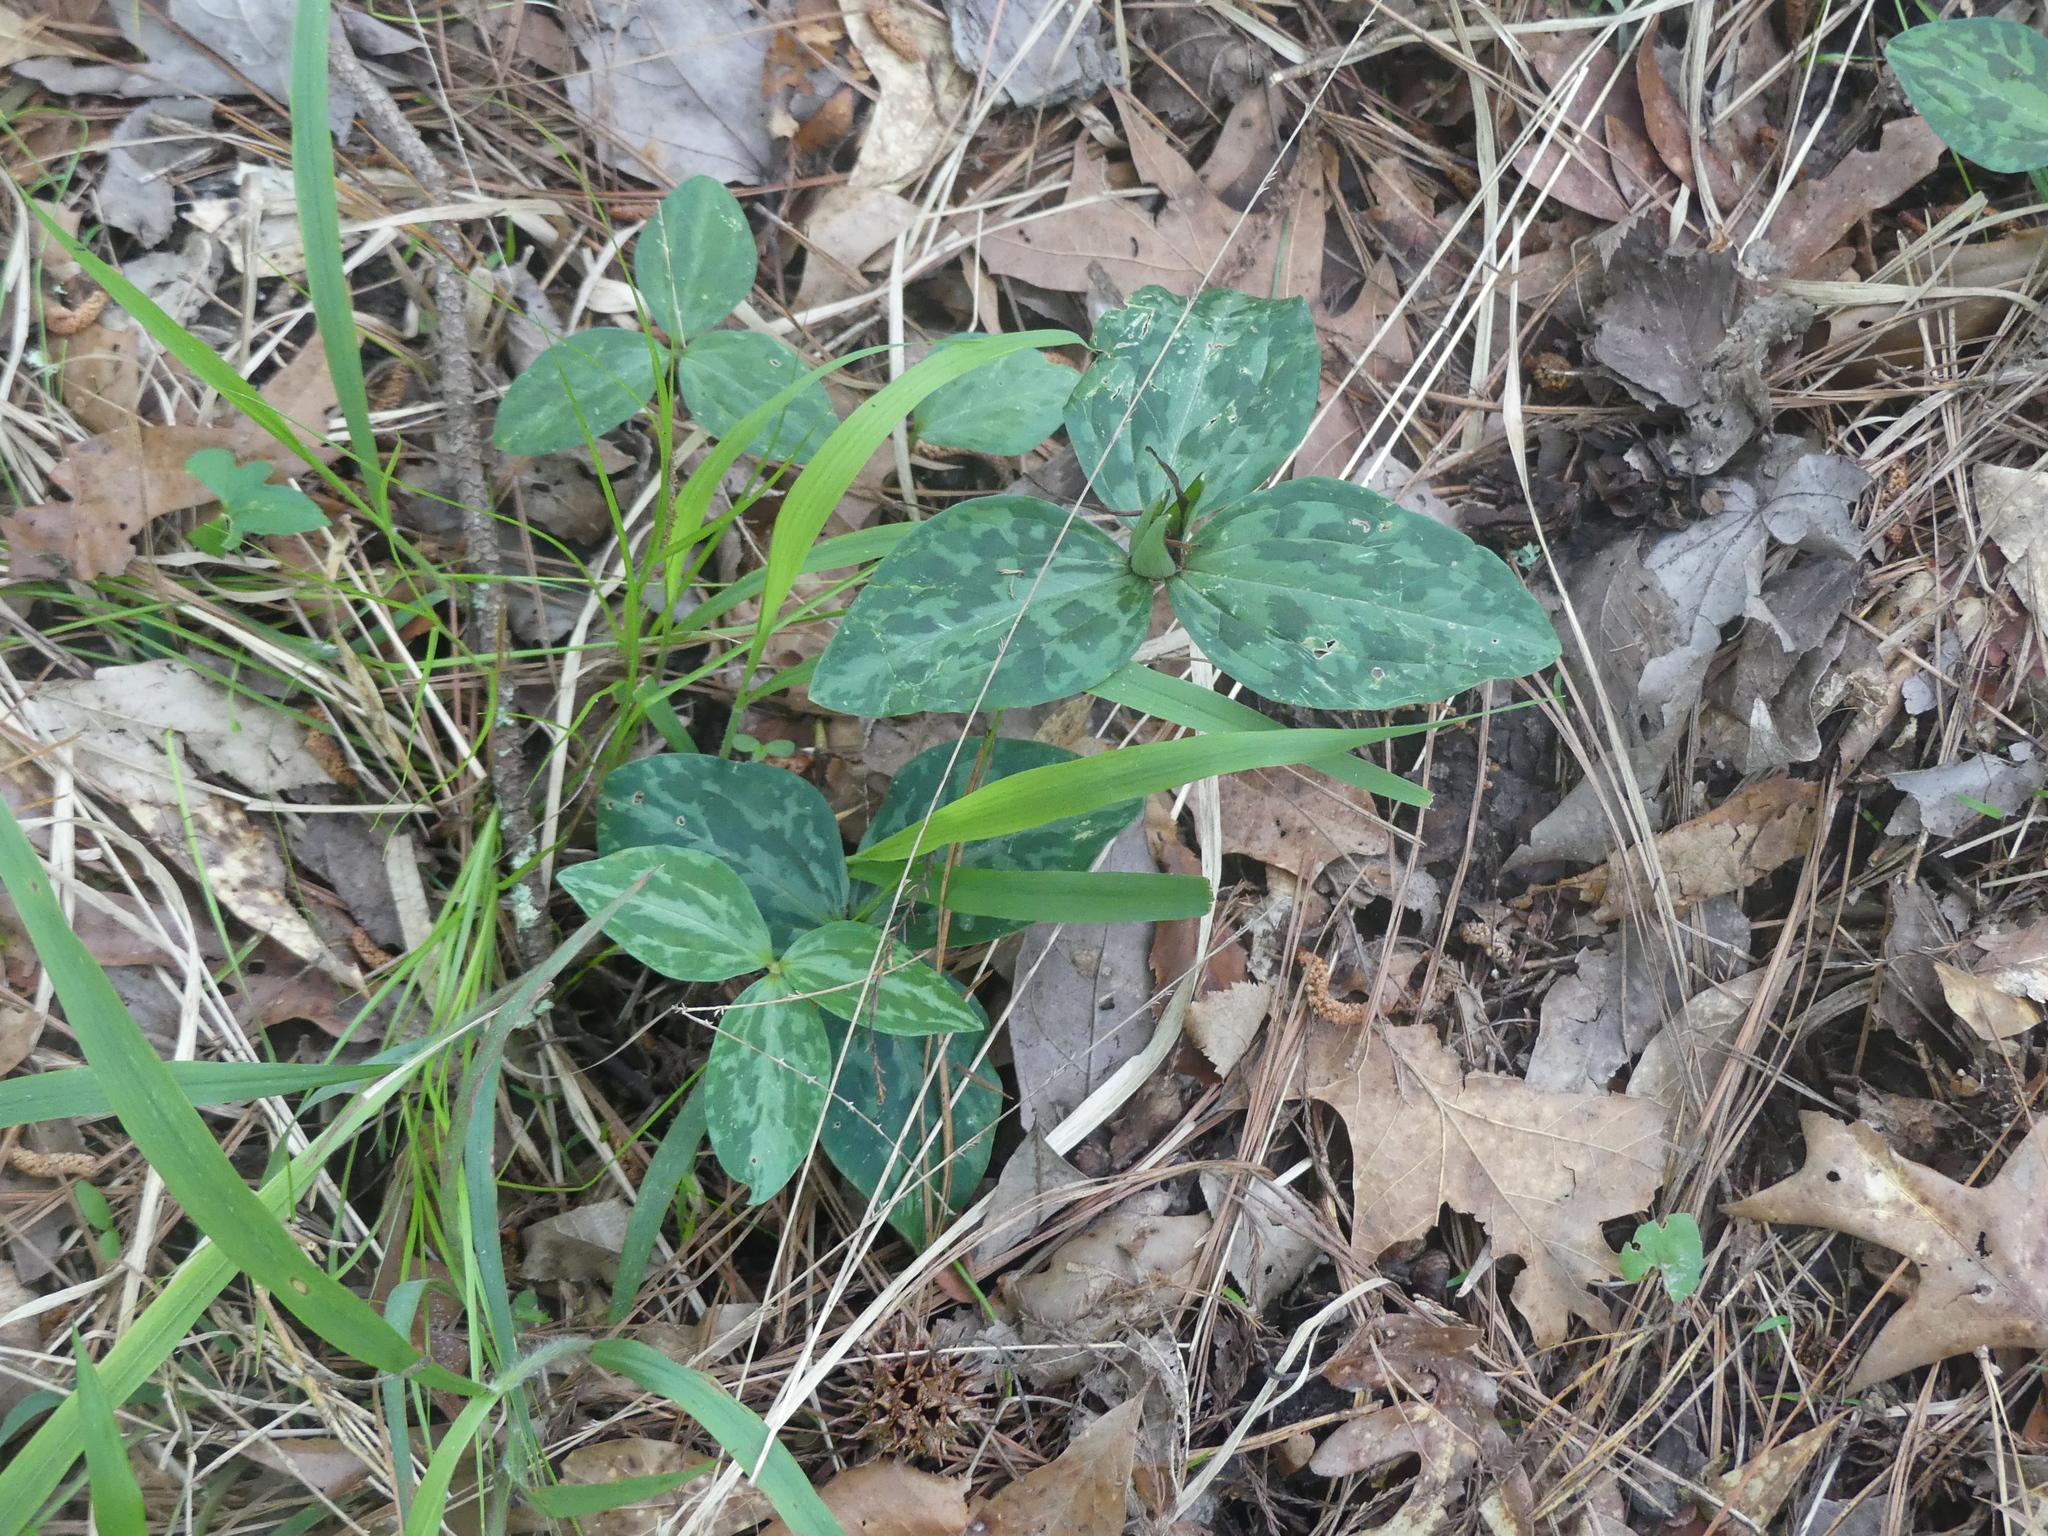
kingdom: Plantae
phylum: Tracheophyta
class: Liliopsida
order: Liliales
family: Melanthiaceae
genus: Trillium
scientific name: Trillium ludovicianum
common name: Louisiana toadshade
